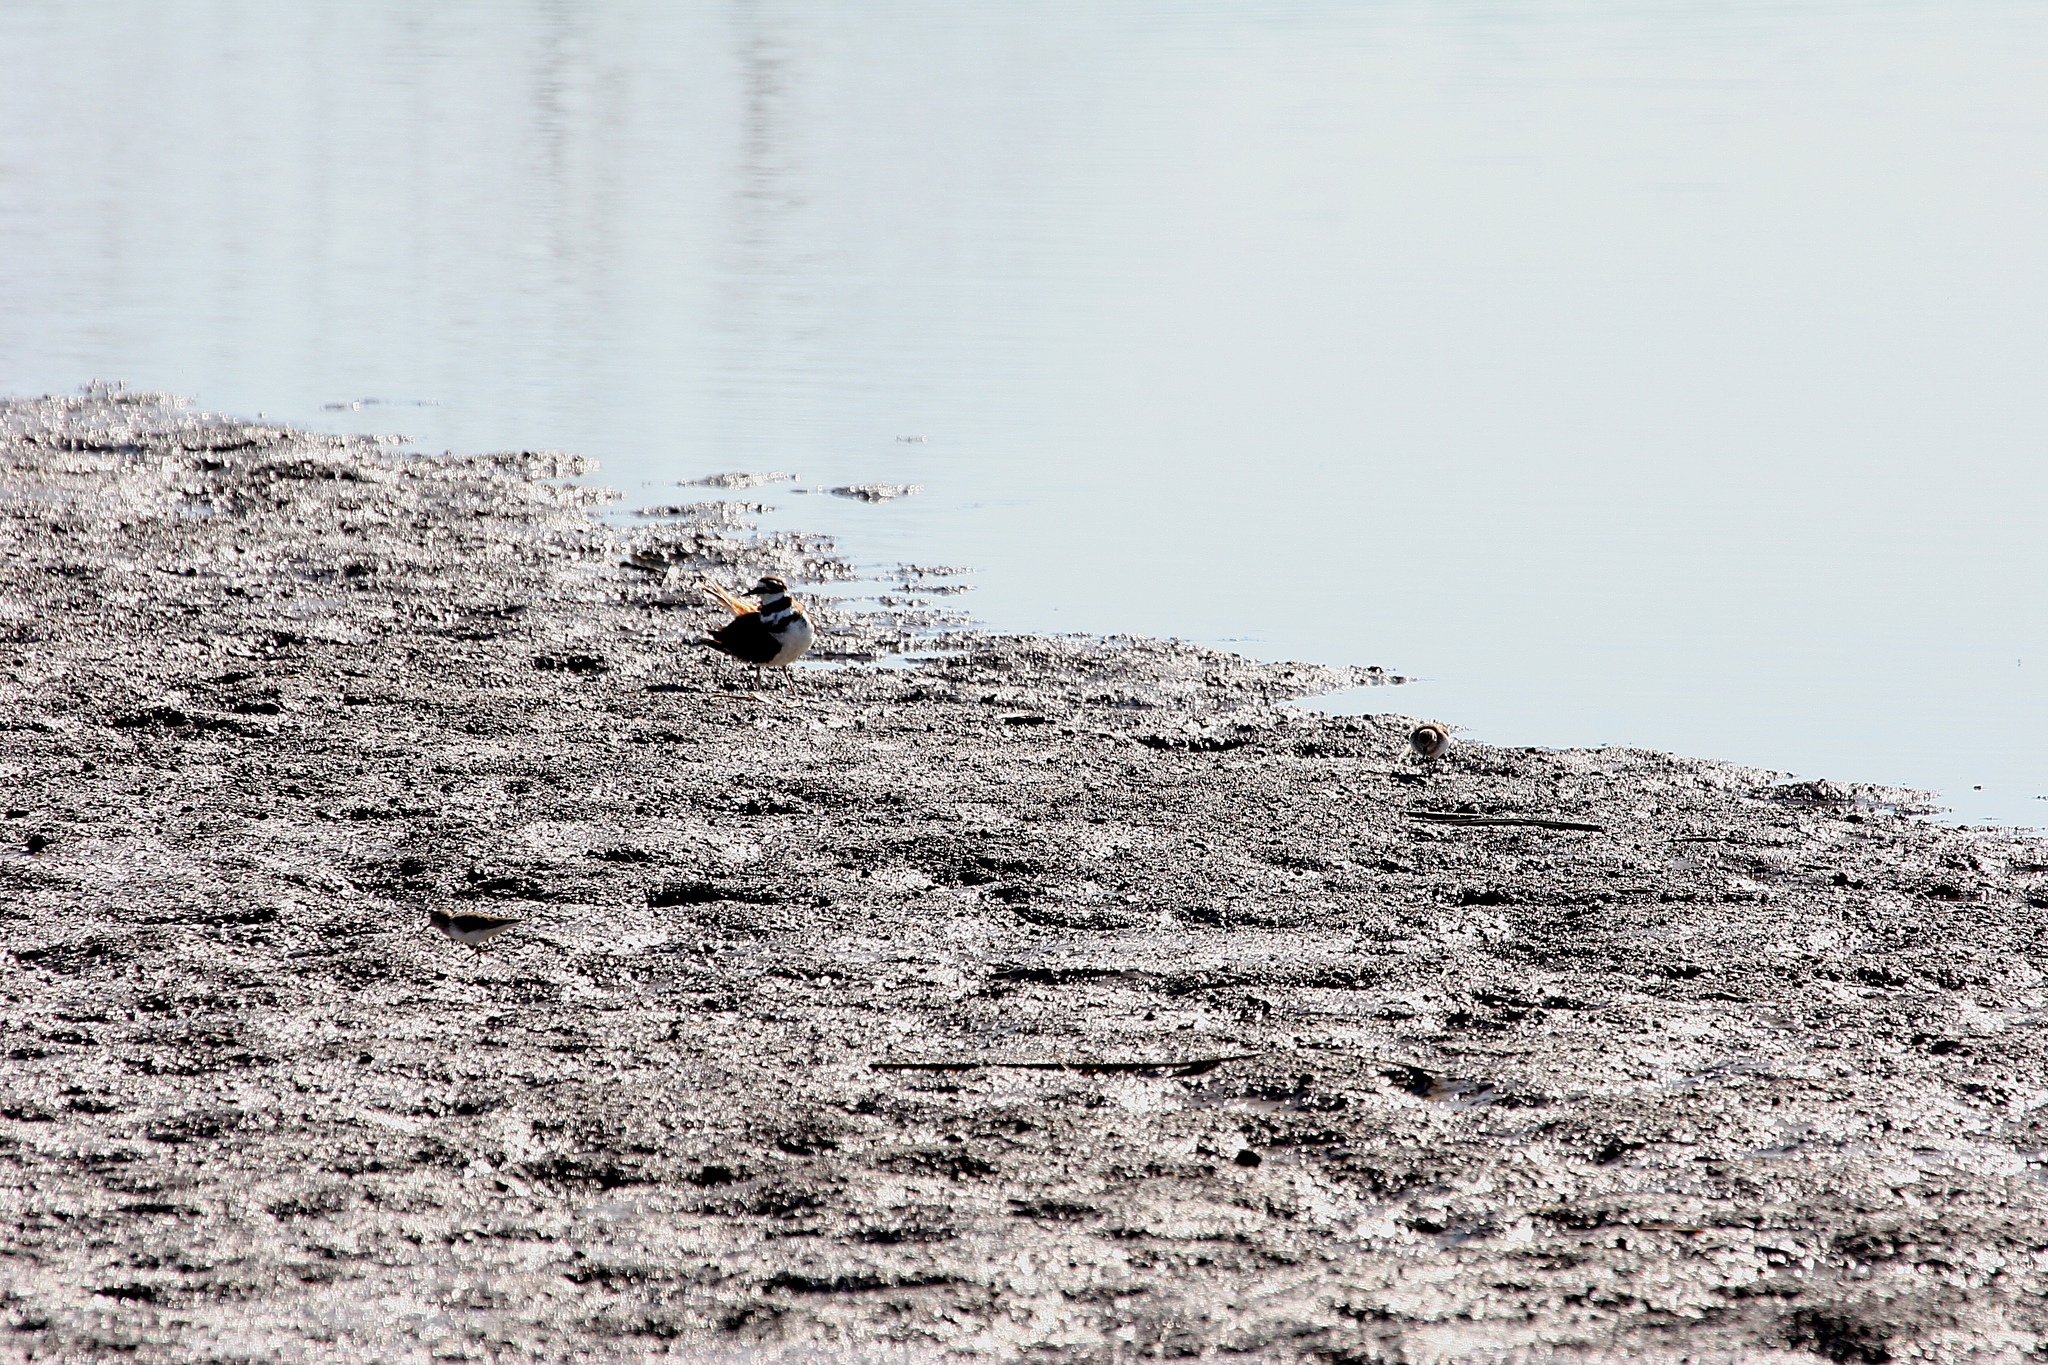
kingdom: Animalia
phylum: Chordata
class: Aves
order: Charadriiformes
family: Charadriidae
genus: Charadrius
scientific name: Charadrius vociferus
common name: Killdeer
